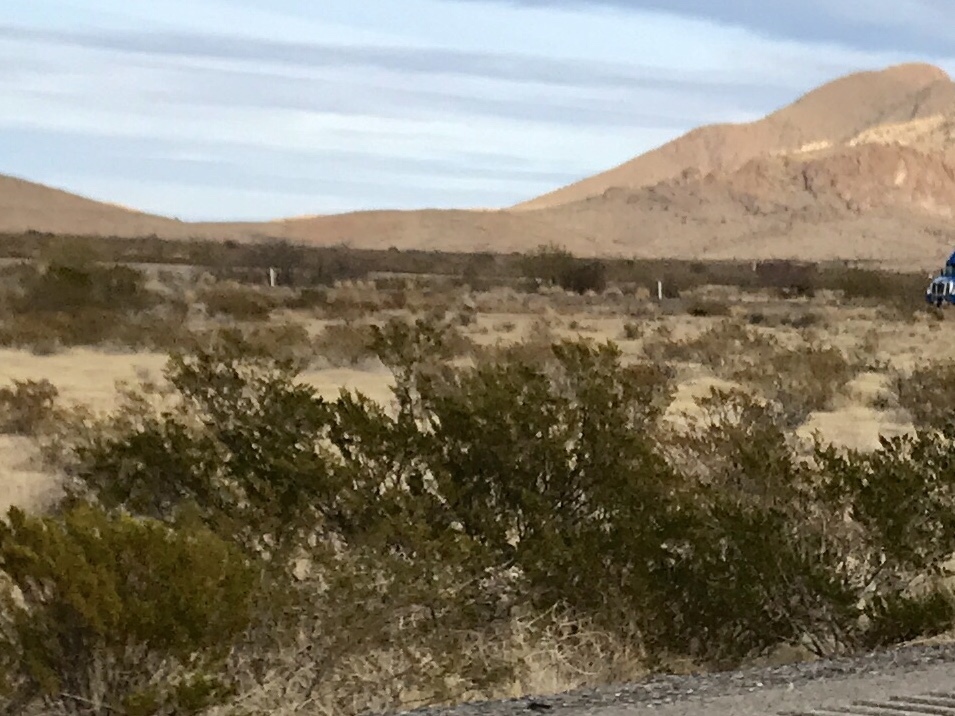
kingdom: Plantae
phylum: Tracheophyta
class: Magnoliopsida
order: Zygophyllales
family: Zygophyllaceae
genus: Larrea
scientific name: Larrea tridentata
